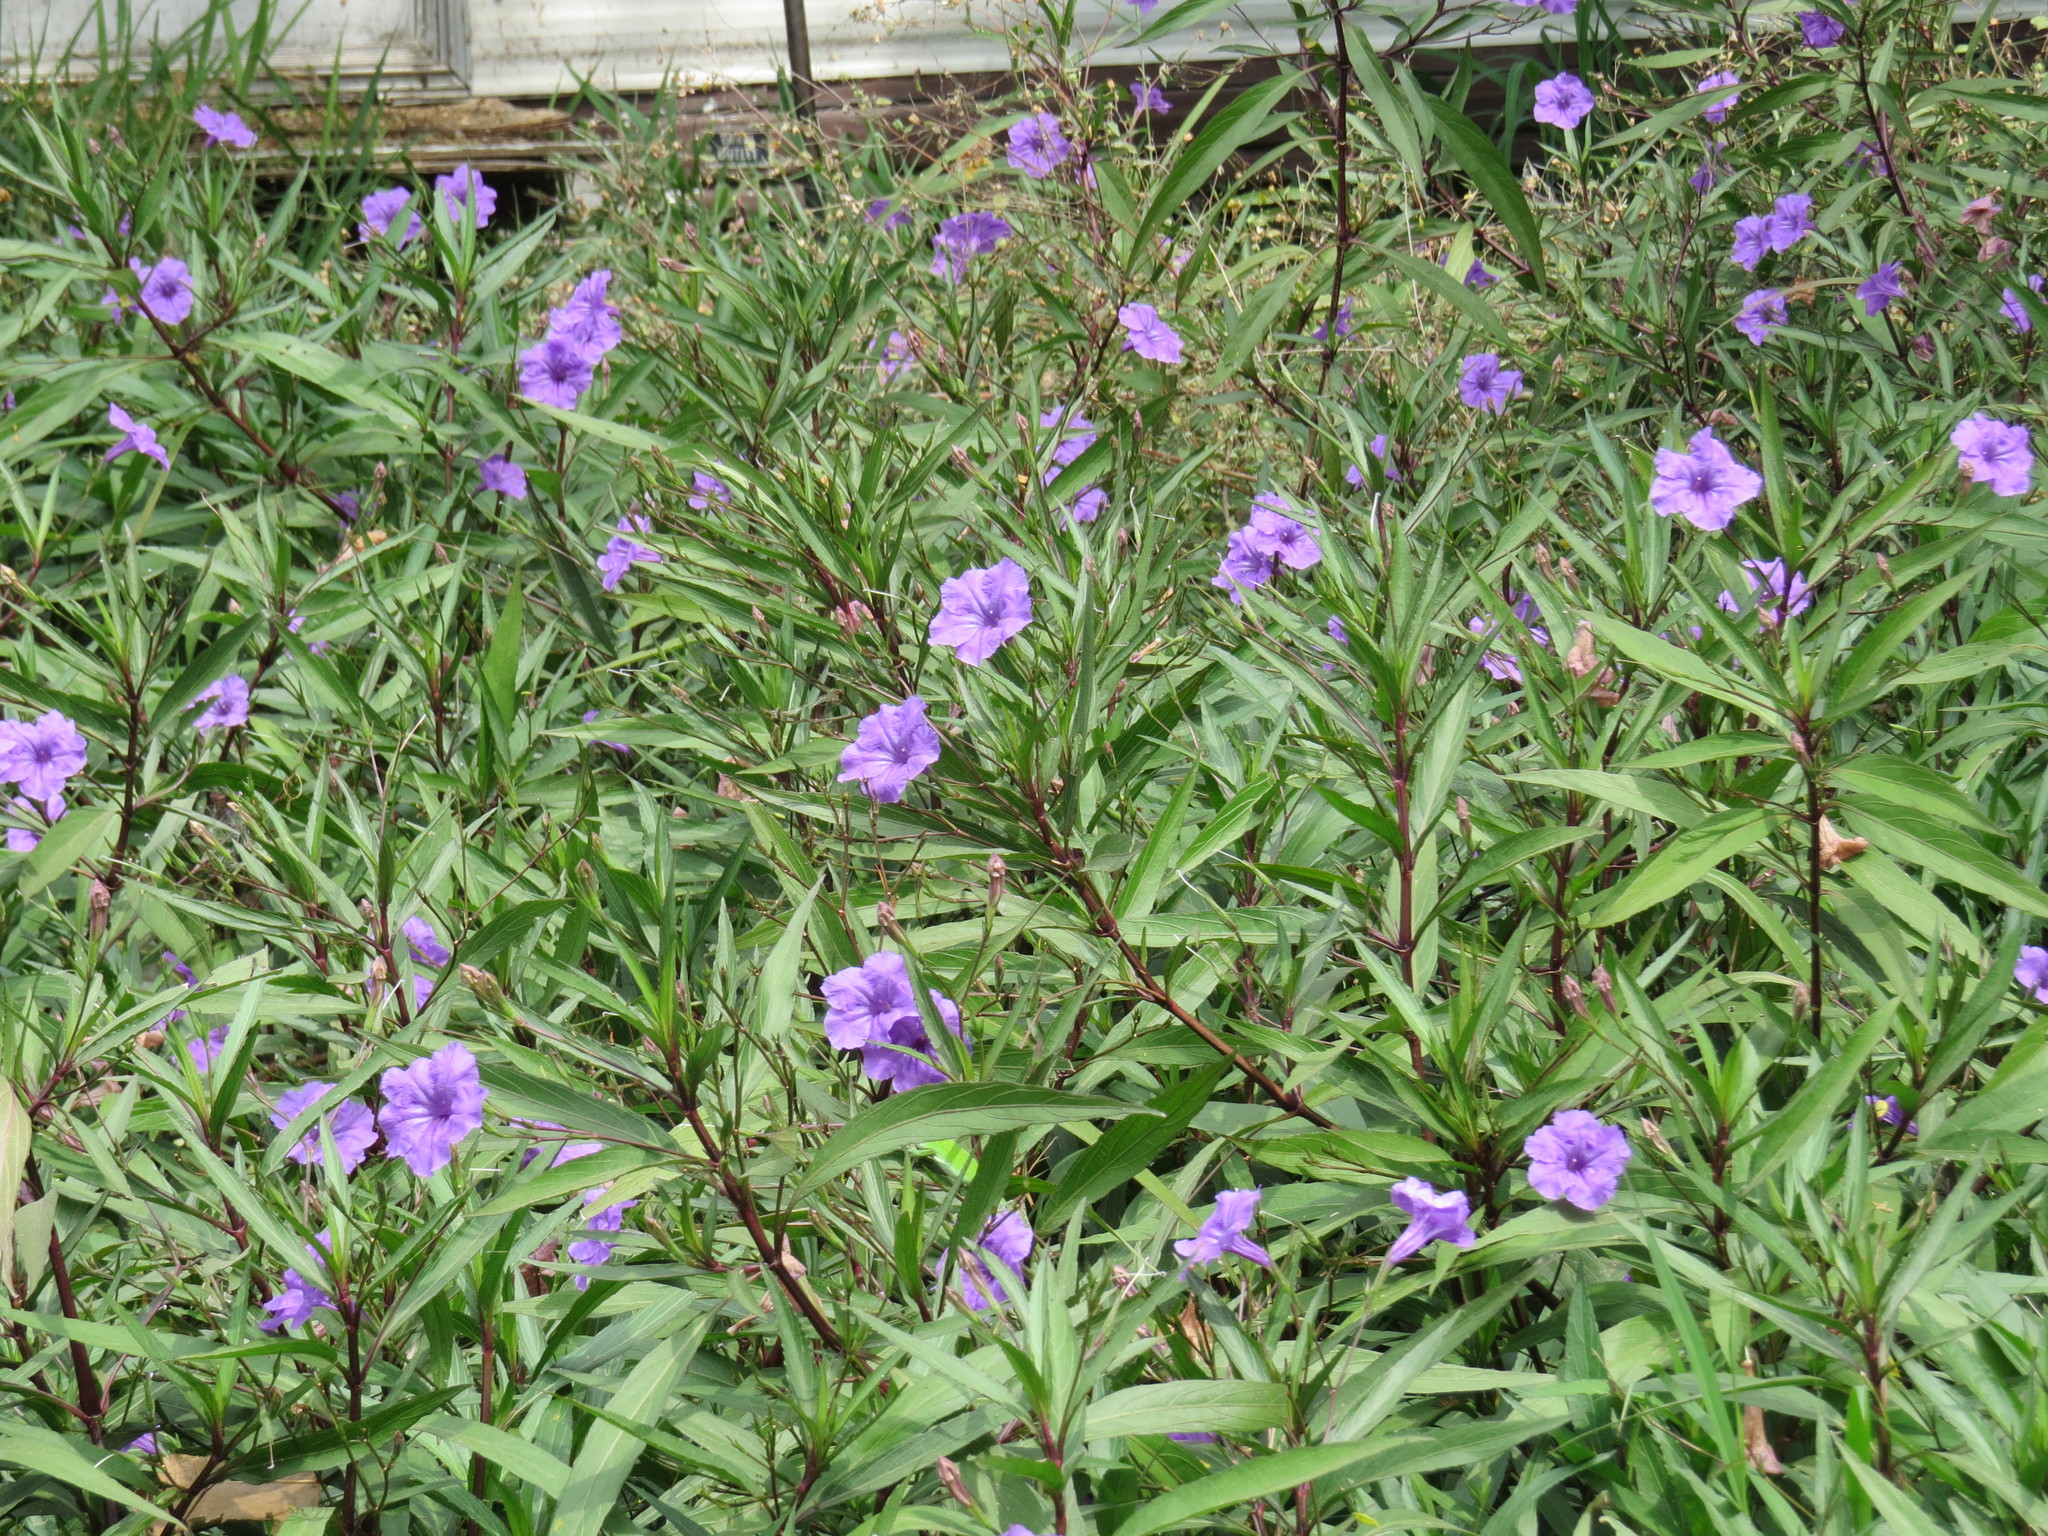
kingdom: Plantae
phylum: Tracheophyta
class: Magnoliopsida
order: Lamiales
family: Acanthaceae
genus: Ruellia
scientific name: Ruellia simplex
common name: Softseed wild petunia
